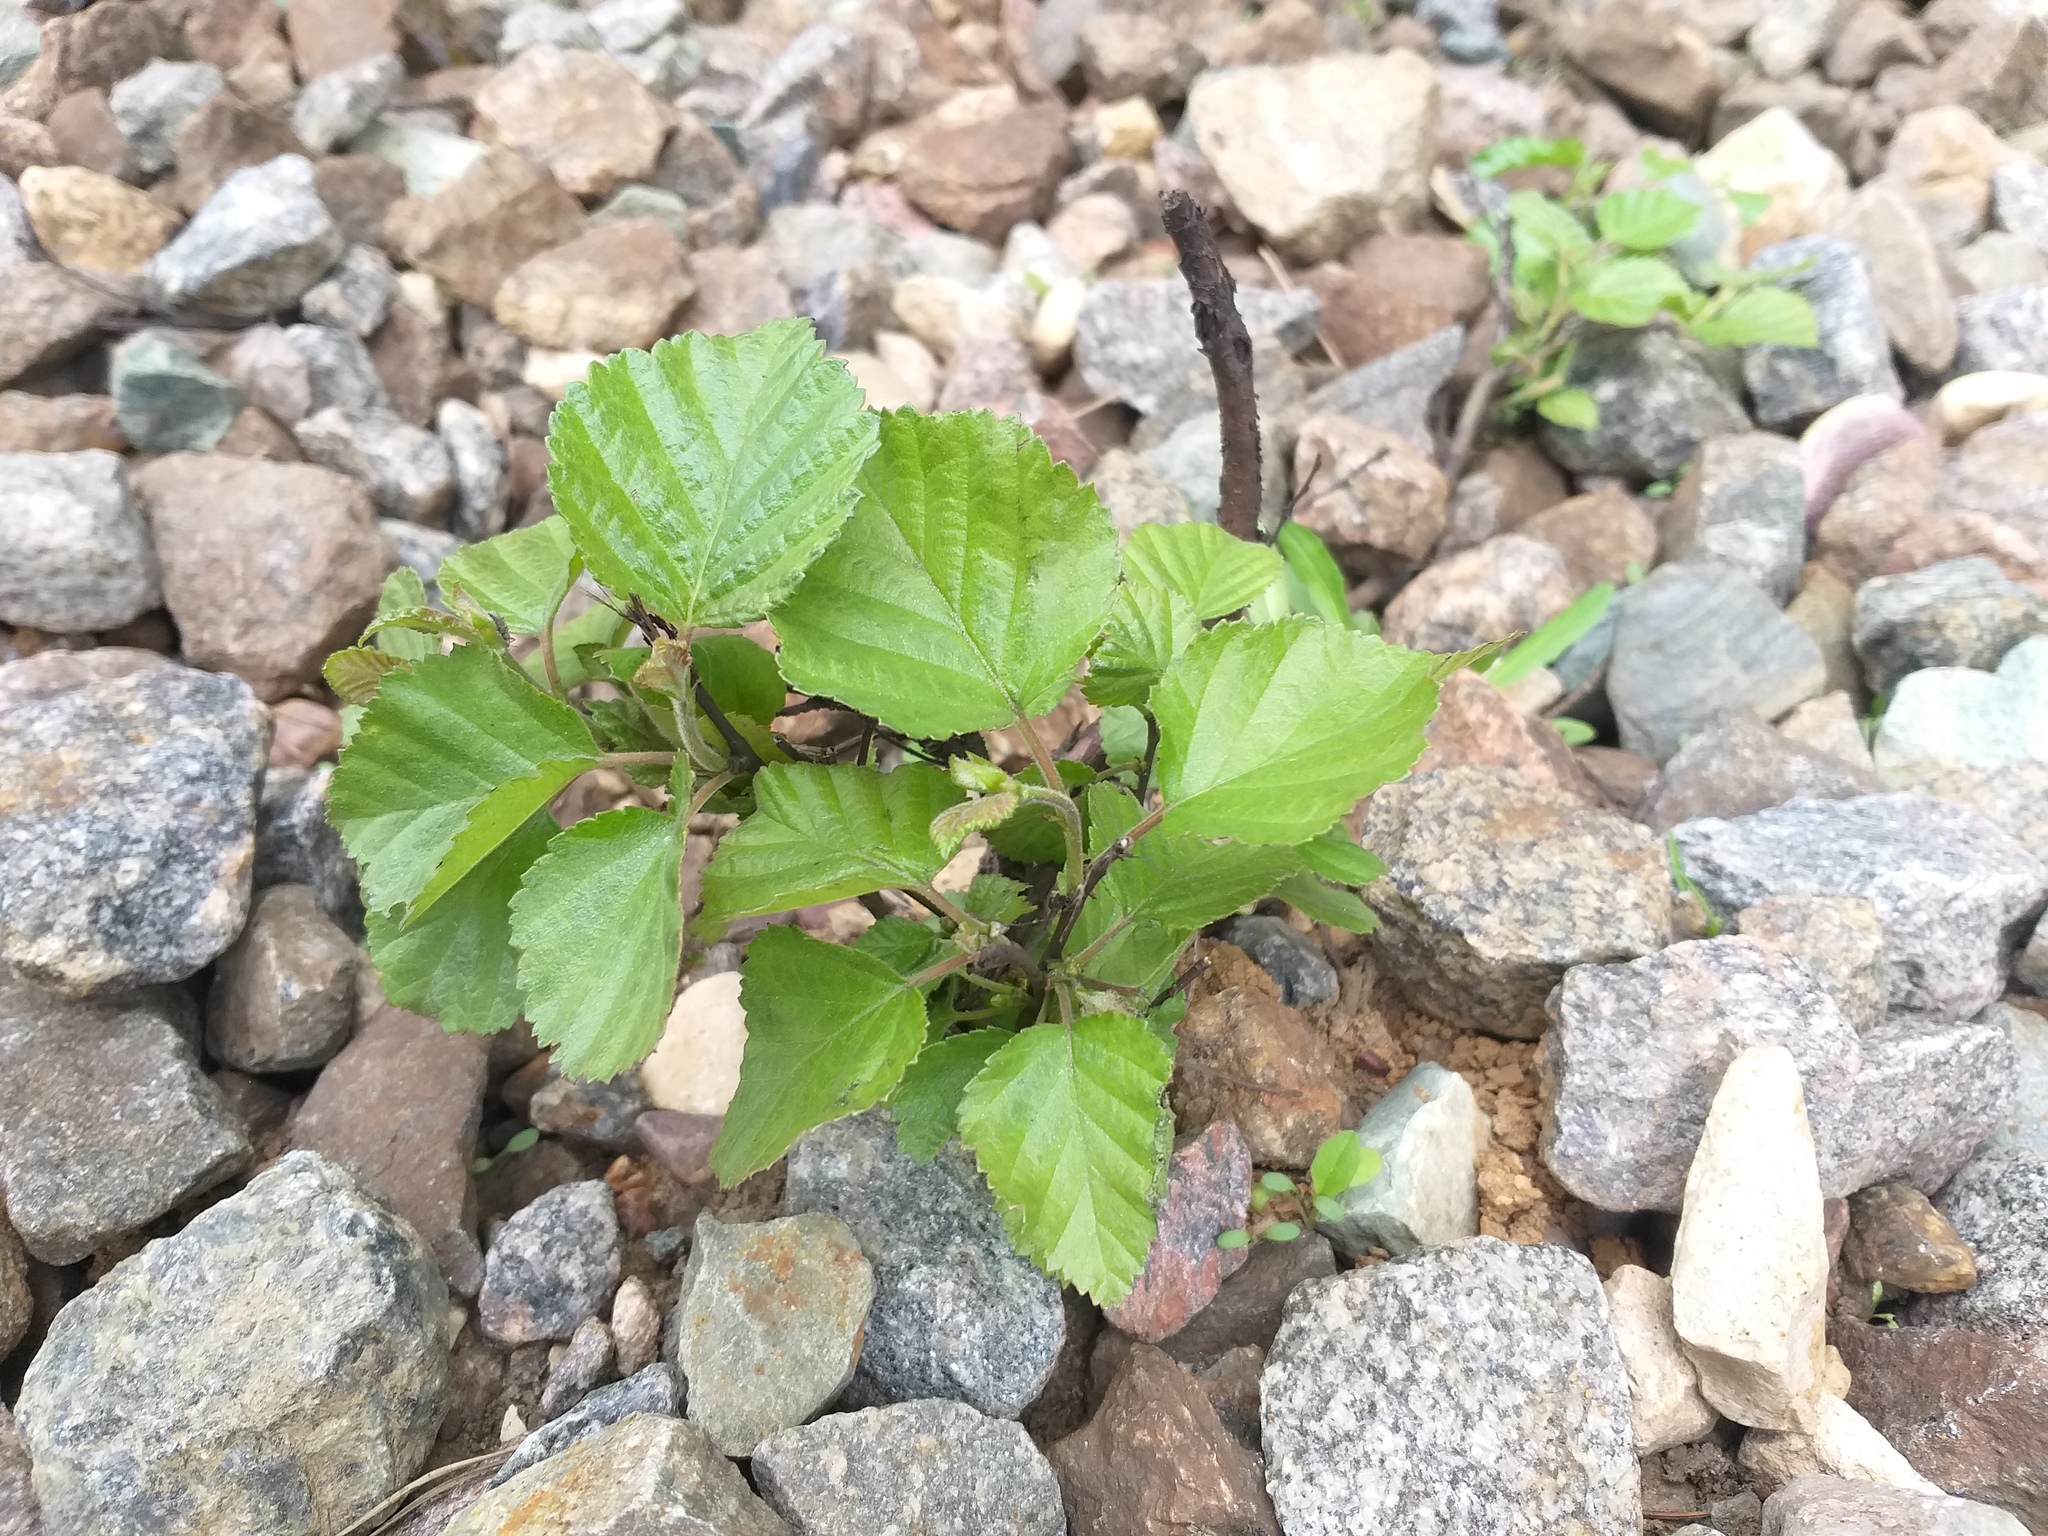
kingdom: Plantae
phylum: Tracheophyta
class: Magnoliopsida
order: Fagales
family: Betulaceae
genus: Betula
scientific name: Betula pubescens
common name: Downy birch
